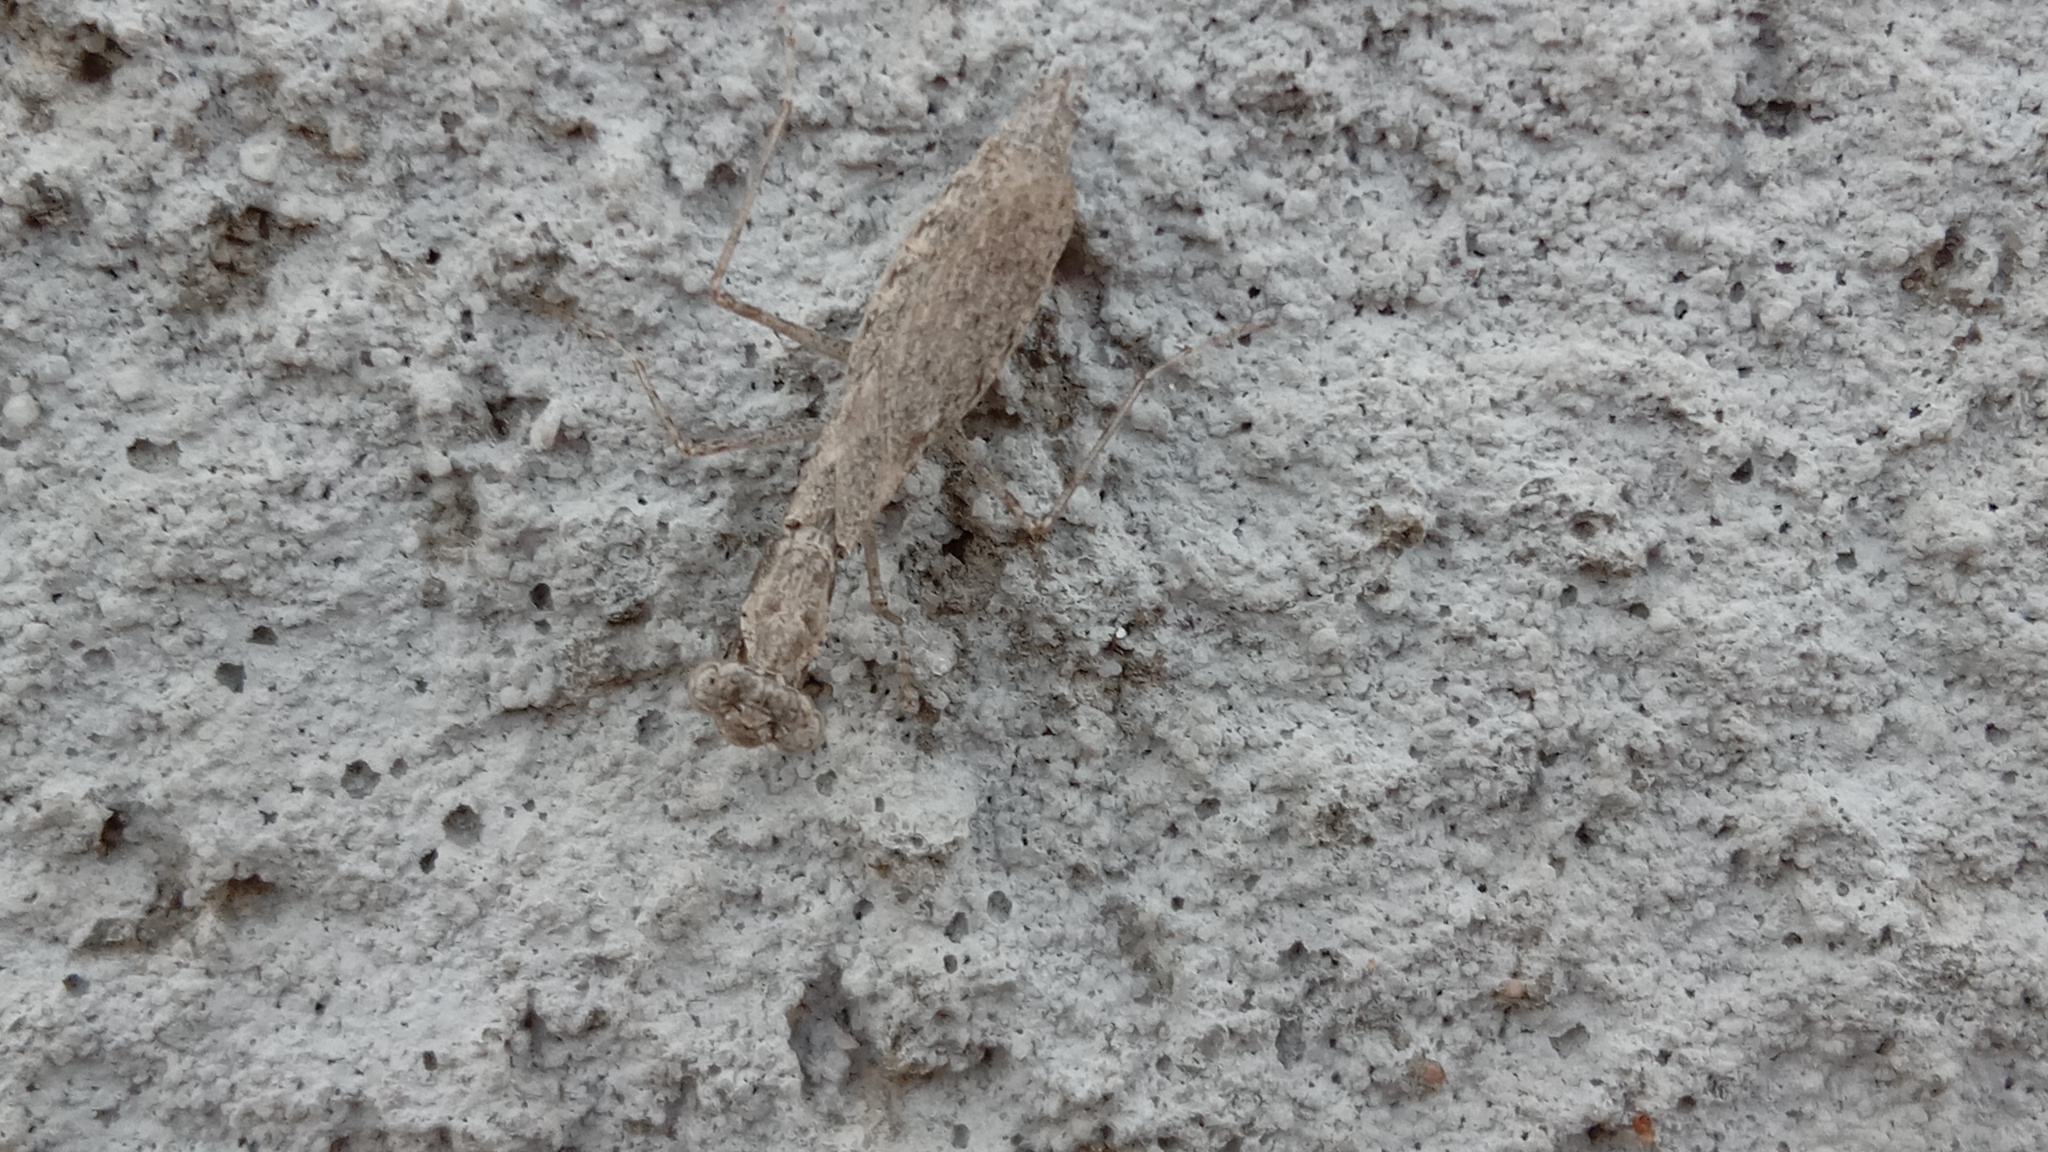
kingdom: Animalia
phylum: Arthropoda
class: Insecta
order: Mantodea
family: Gonypetidae
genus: Armene
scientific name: Armene pusilla
